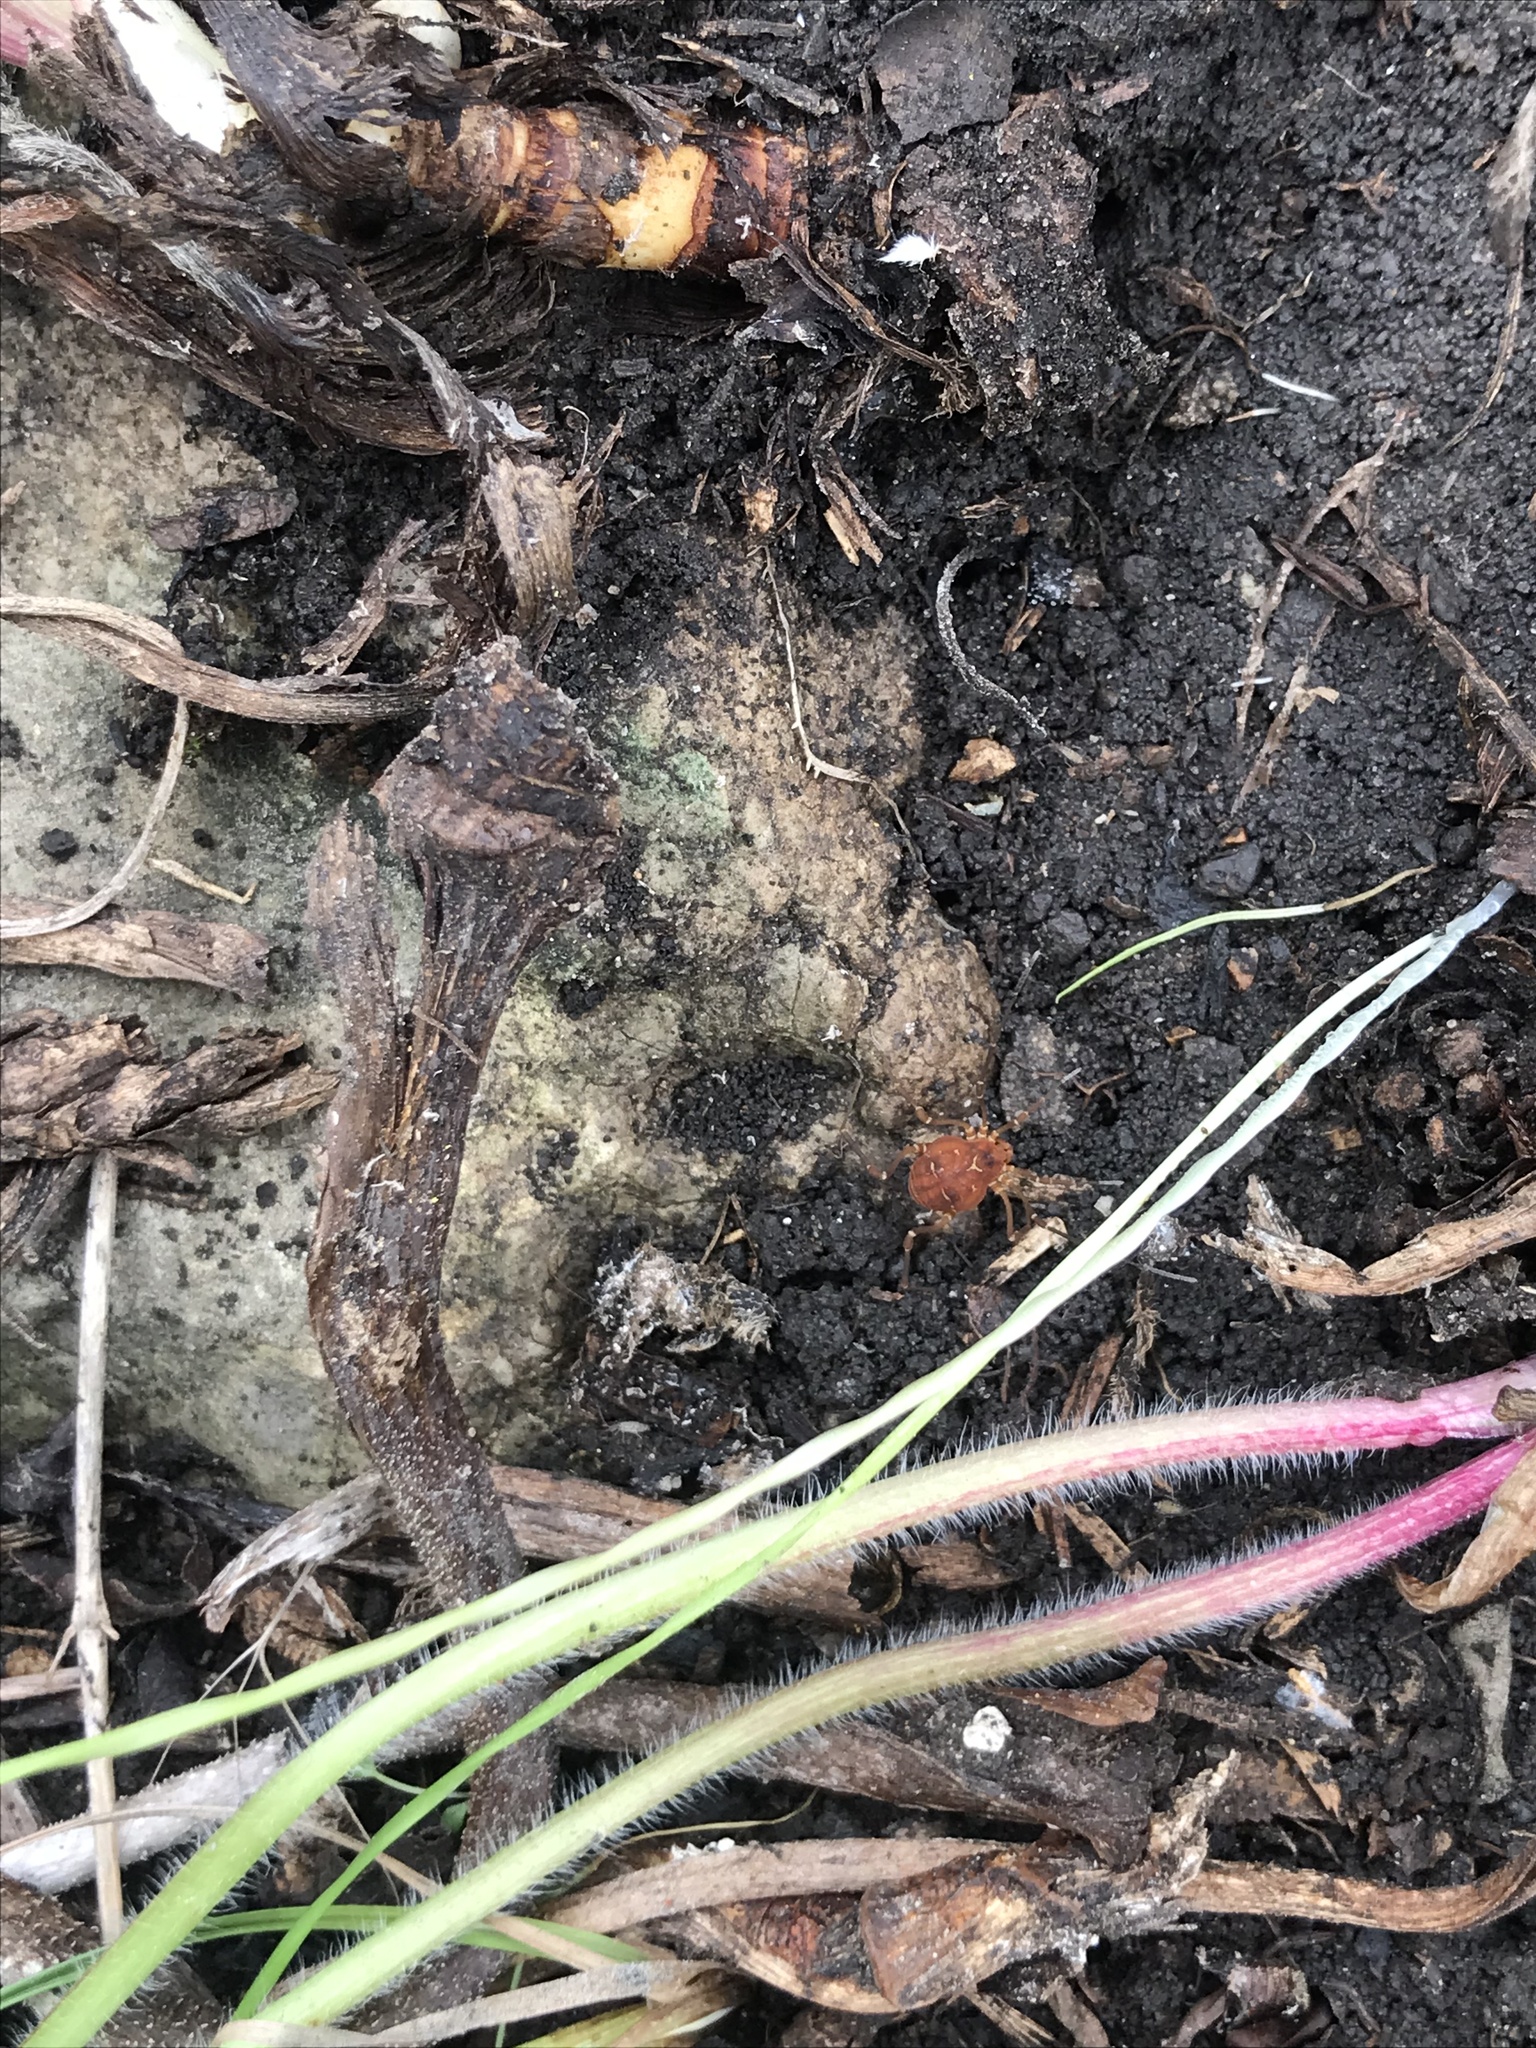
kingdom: Animalia
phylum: Arthropoda
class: Arachnida
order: Opiliones
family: Cosmetidae
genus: Libitioides
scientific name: Libitioides sayi
